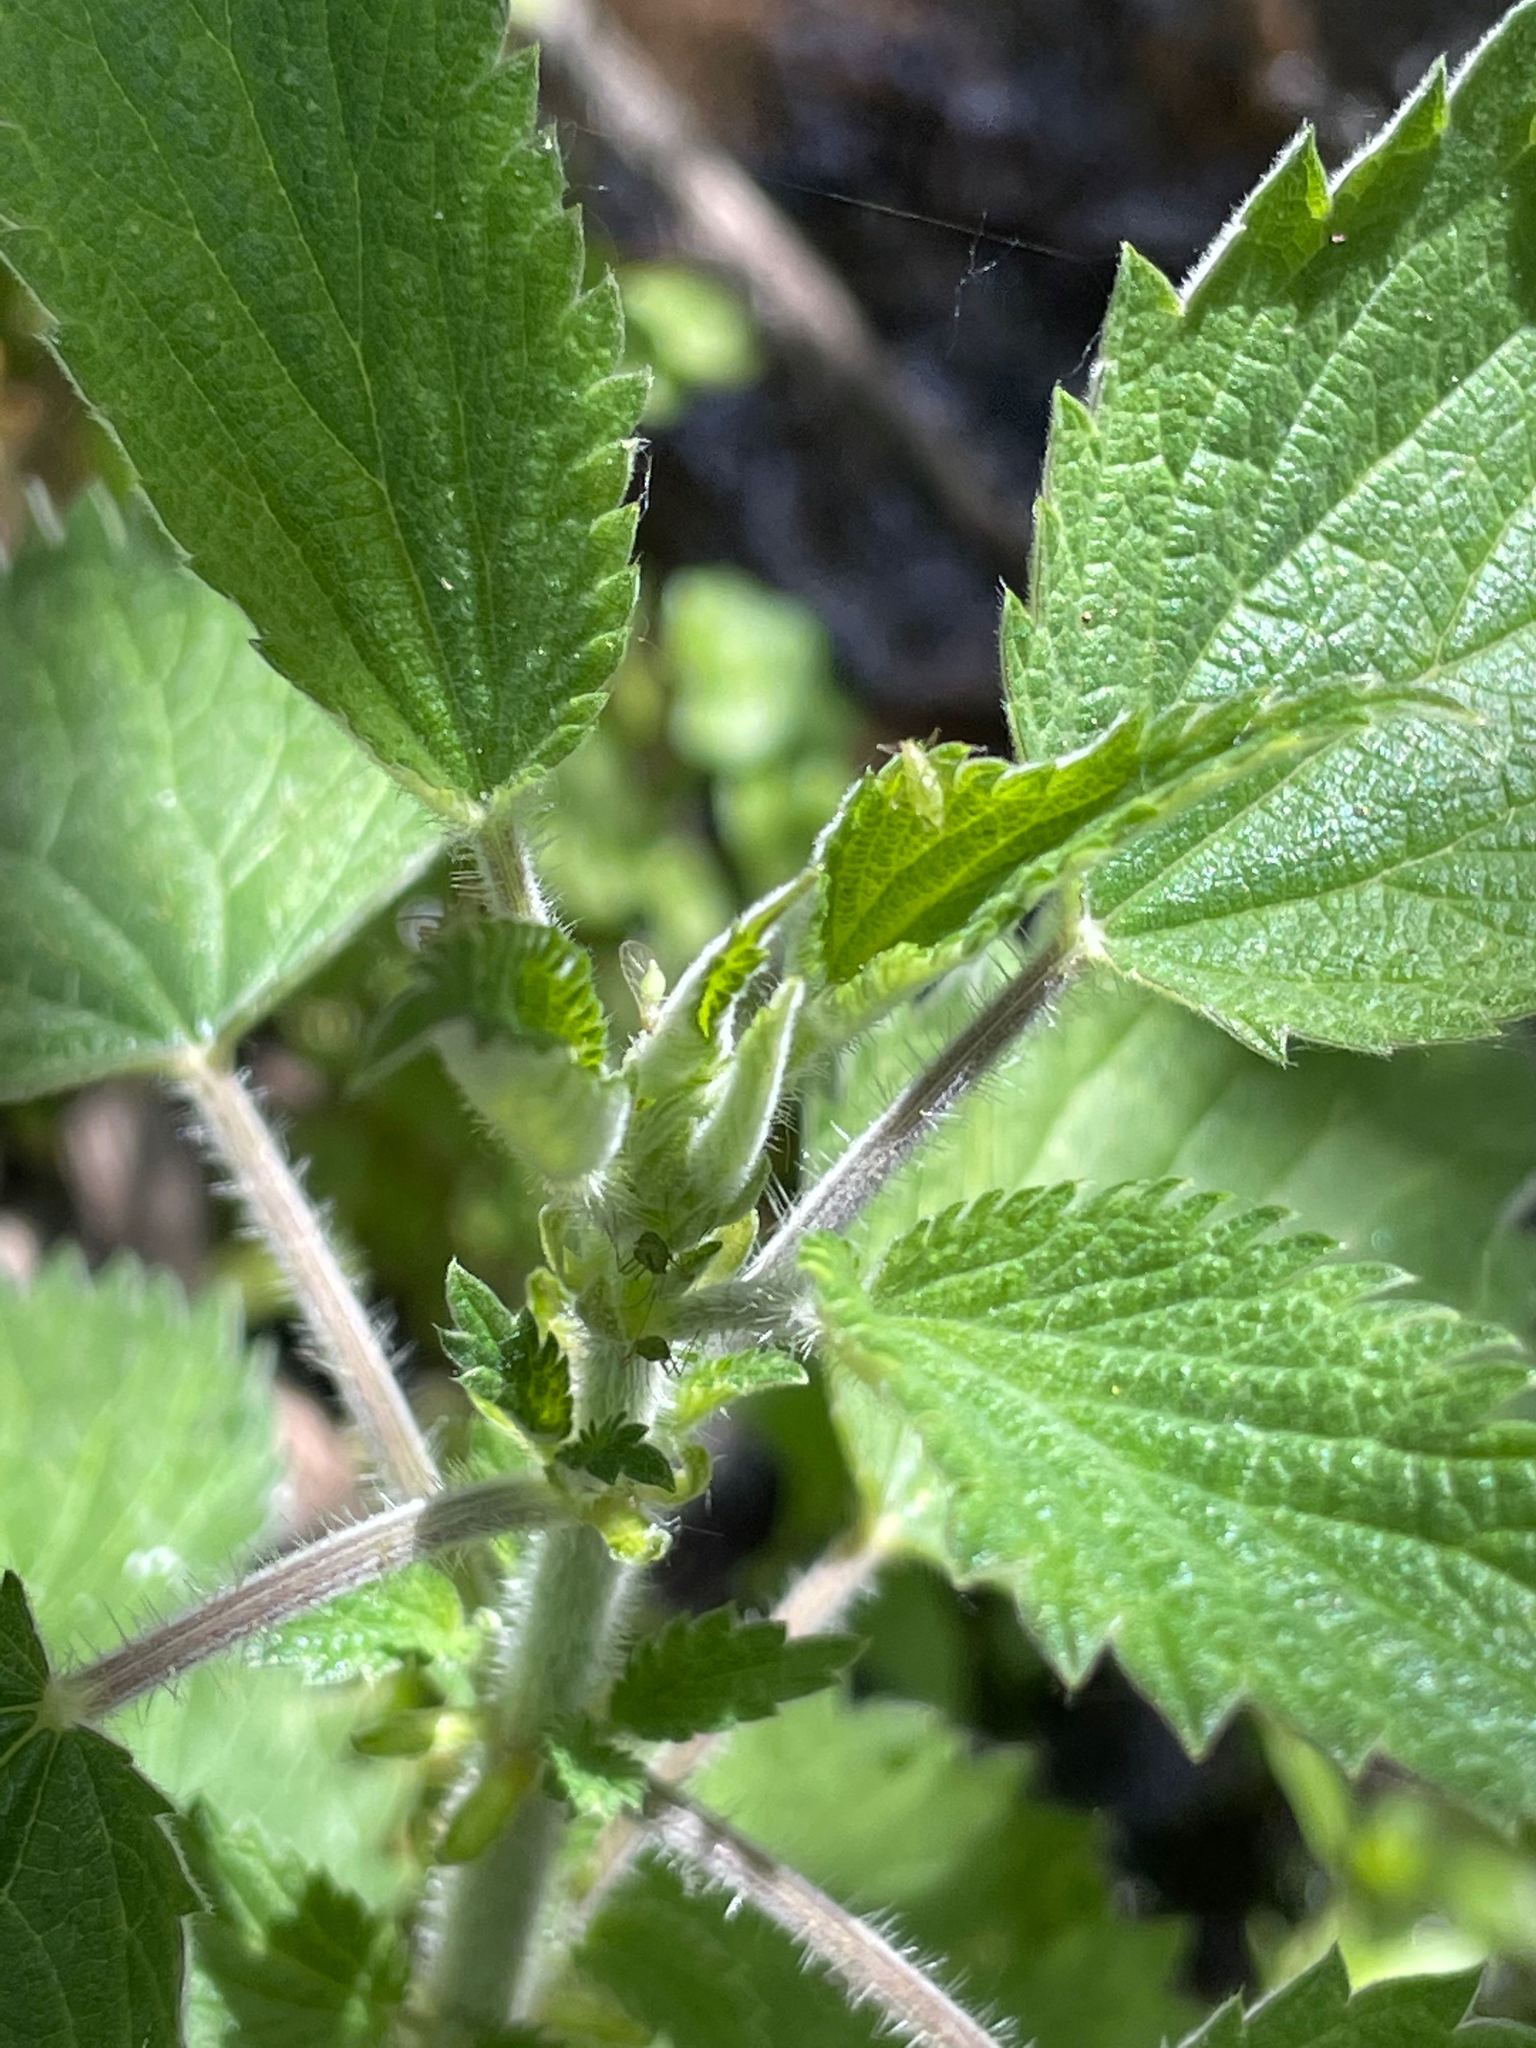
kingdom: Plantae
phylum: Tracheophyta
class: Magnoliopsida
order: Rosales
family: Urticaceae
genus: Urtica
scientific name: Urtica dioica
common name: Common nettle
